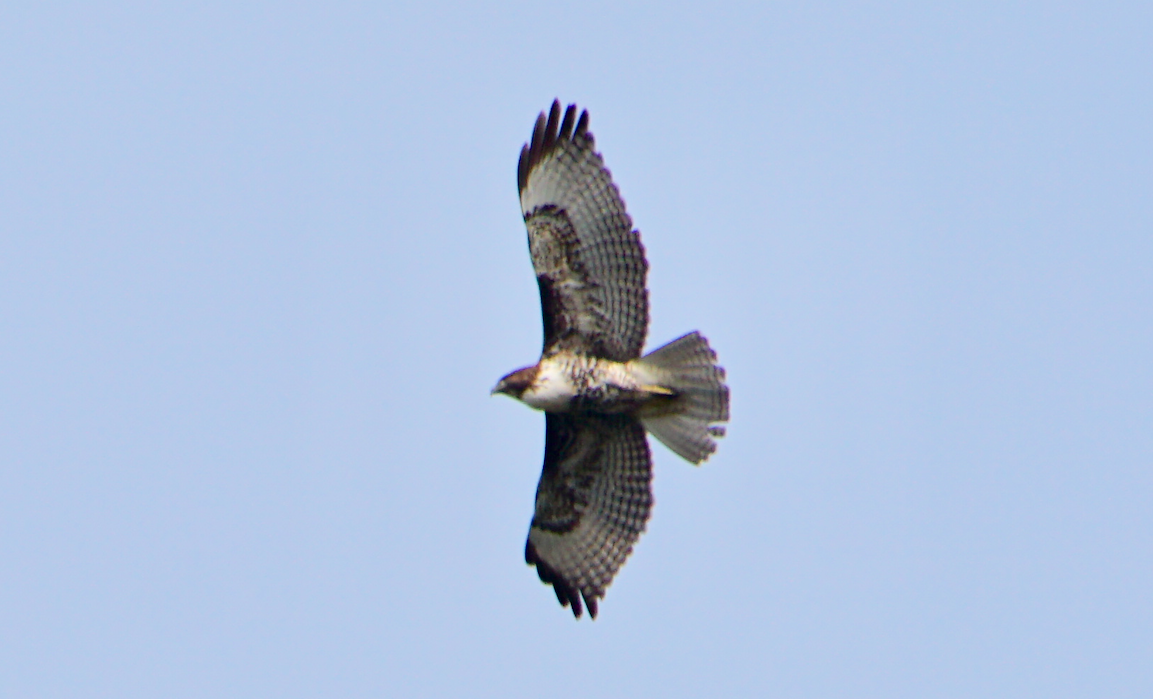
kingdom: Animalia
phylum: Chordata
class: Aves
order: Accipitriformes
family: Accipitridae
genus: Buteo
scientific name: Buteo jamaicensis
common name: Red-tailed hawk
